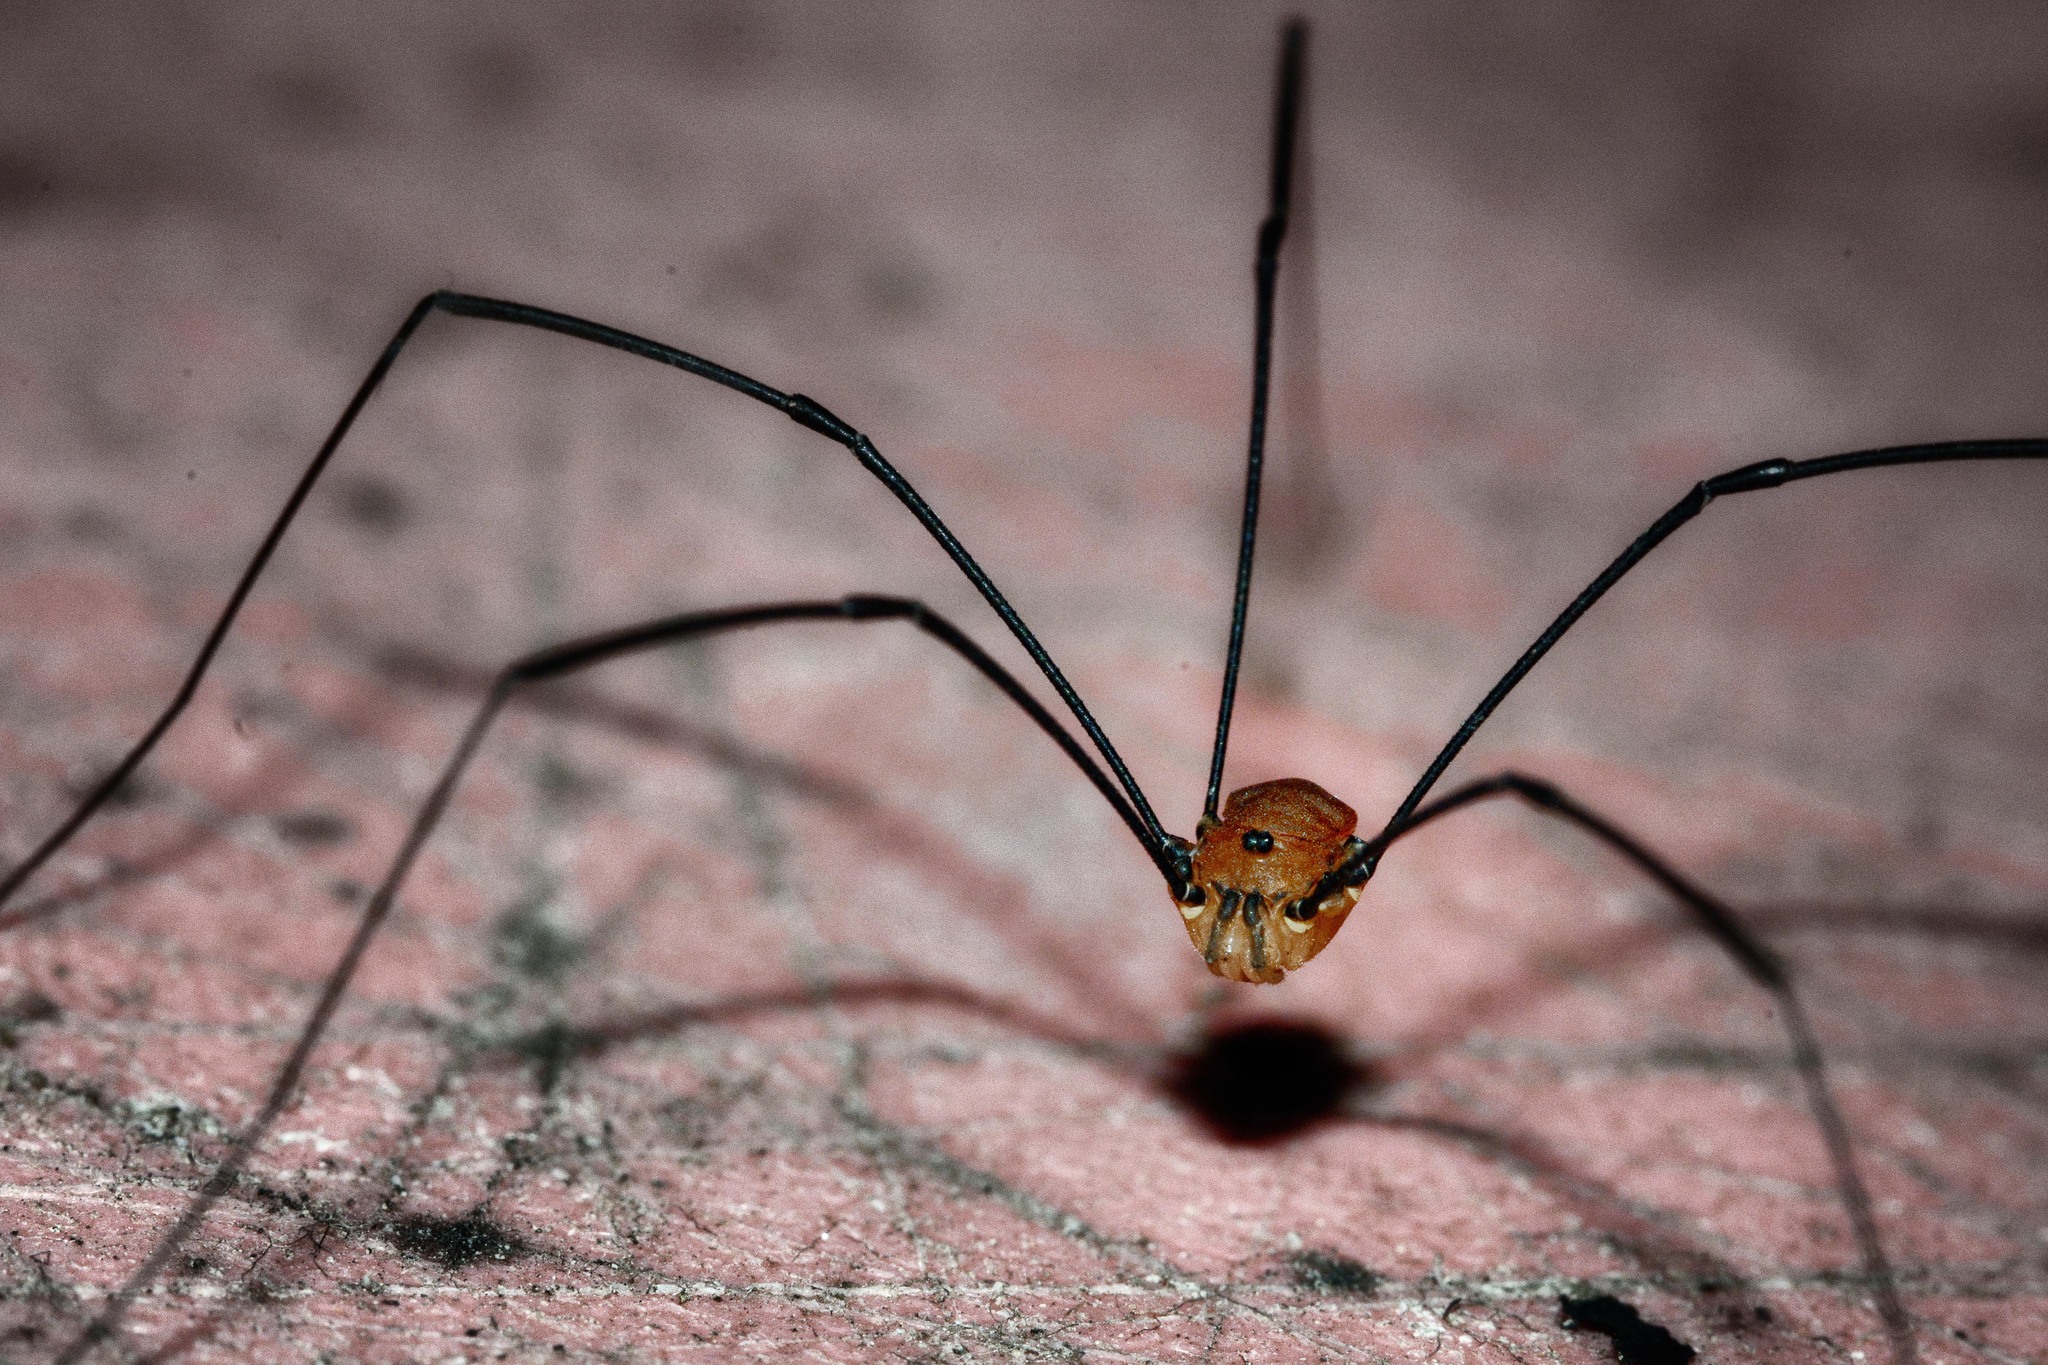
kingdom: Animalia
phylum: Arthropoda
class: Arachnida
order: Opiliones
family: Sclerosomatidae
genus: Leiobunum
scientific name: Leiobunum rotundum
